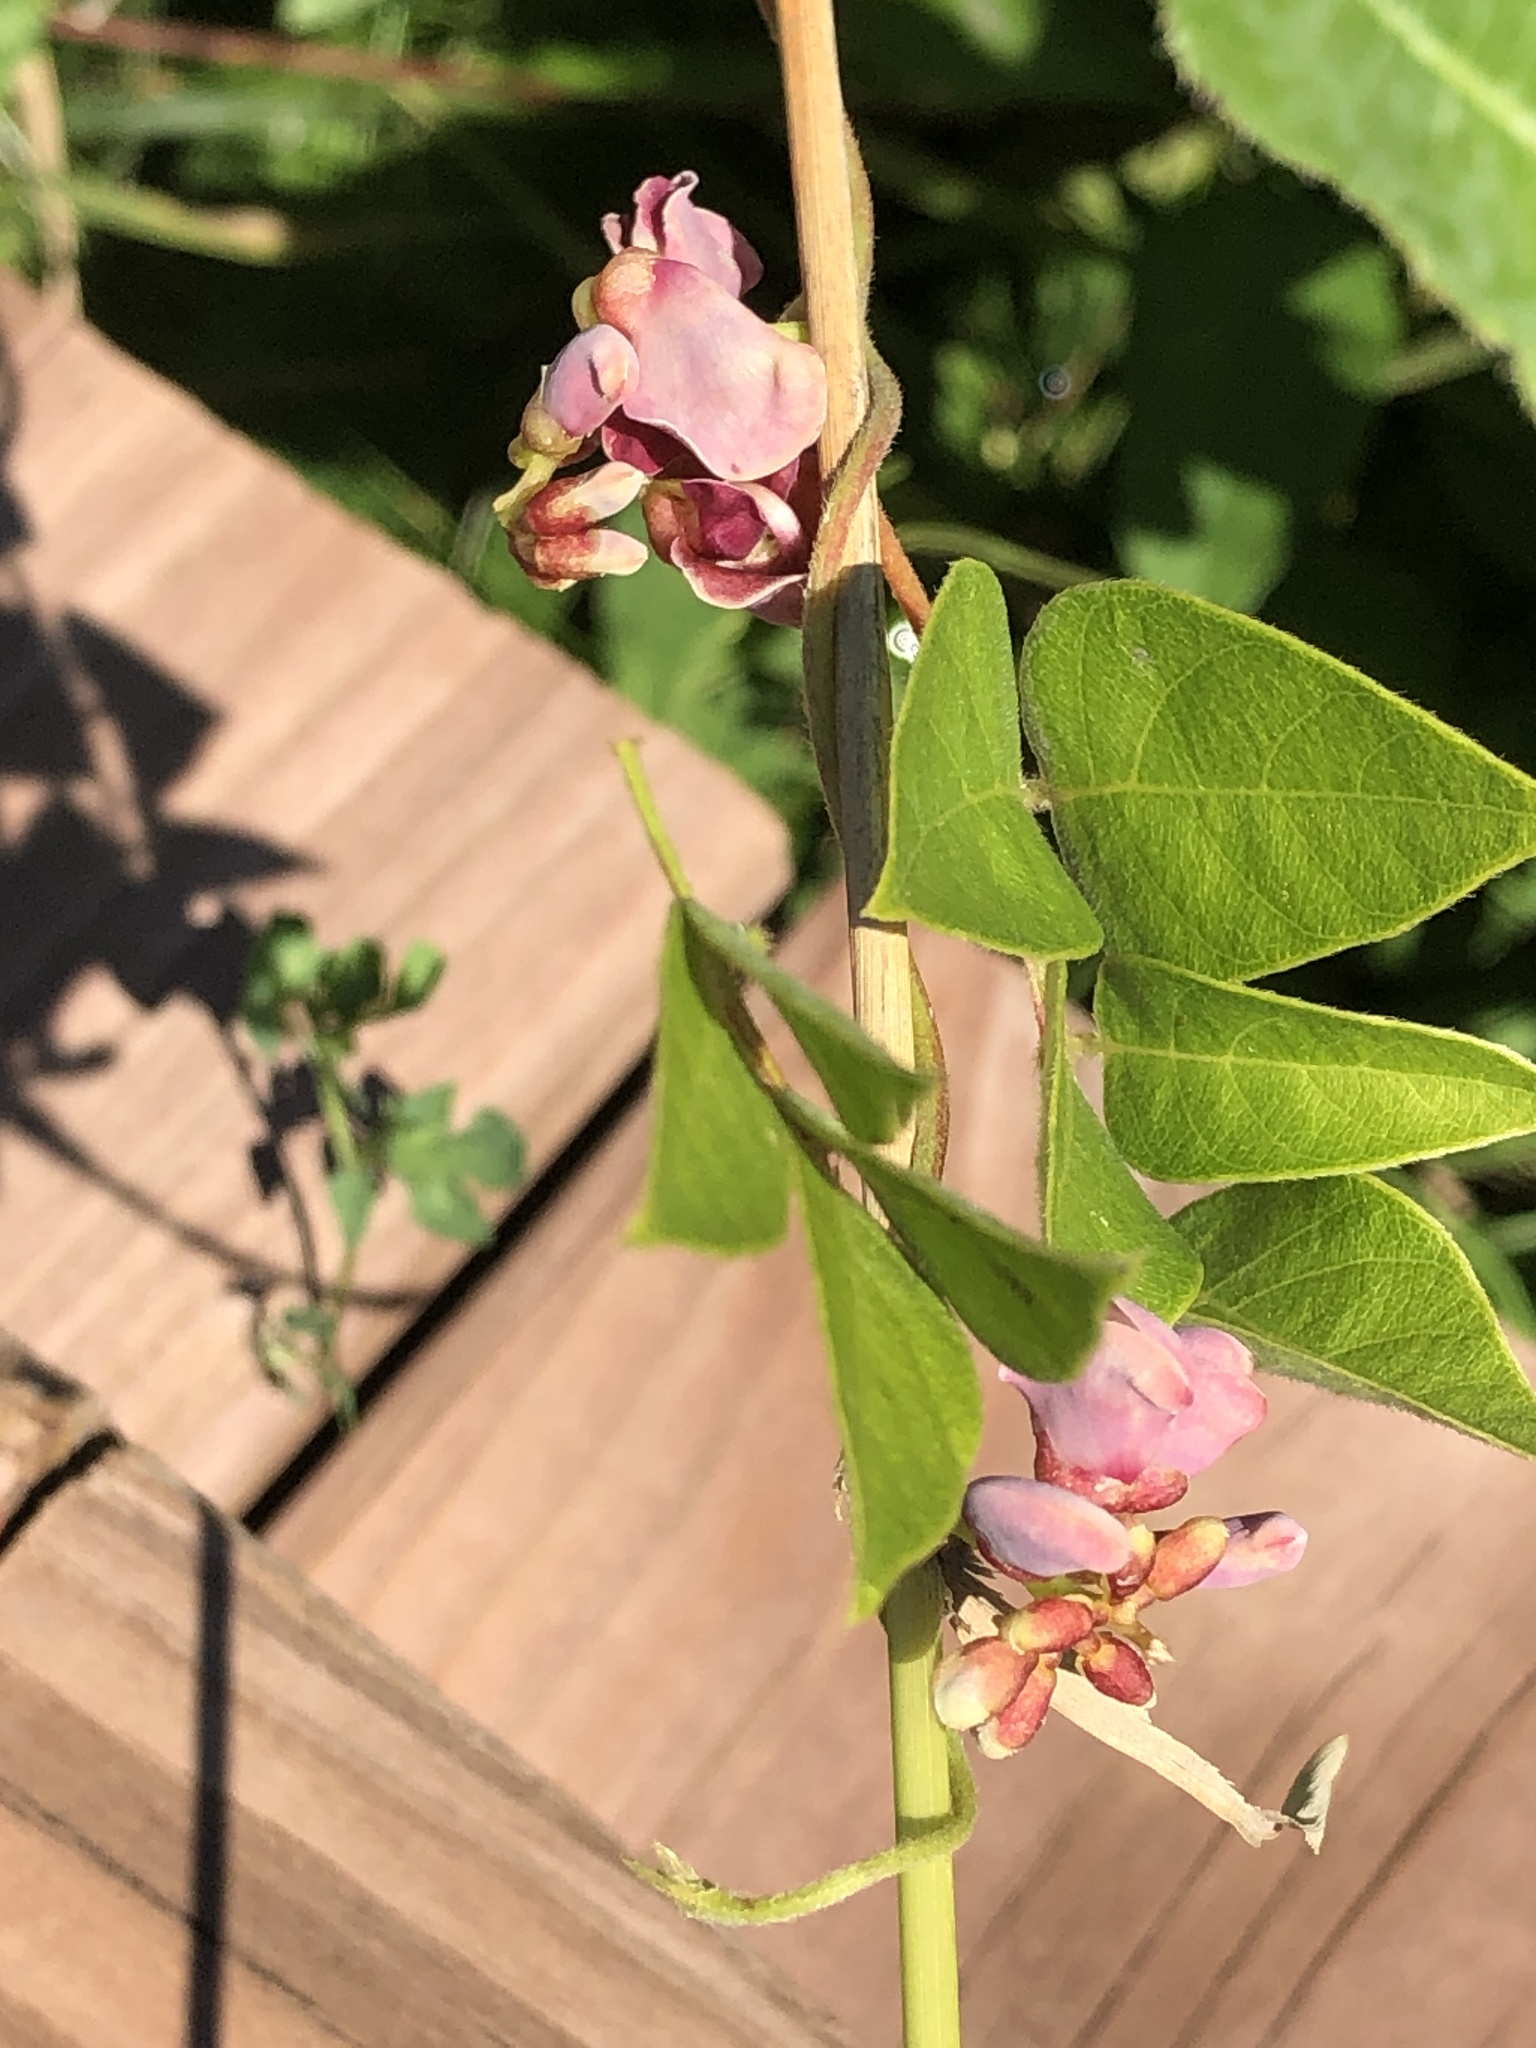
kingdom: Plantae
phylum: Tracheophyta
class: Magnoliopsida
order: Fabales
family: Fabaceae
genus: Apios
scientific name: Apios americana
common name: American potato-bean
